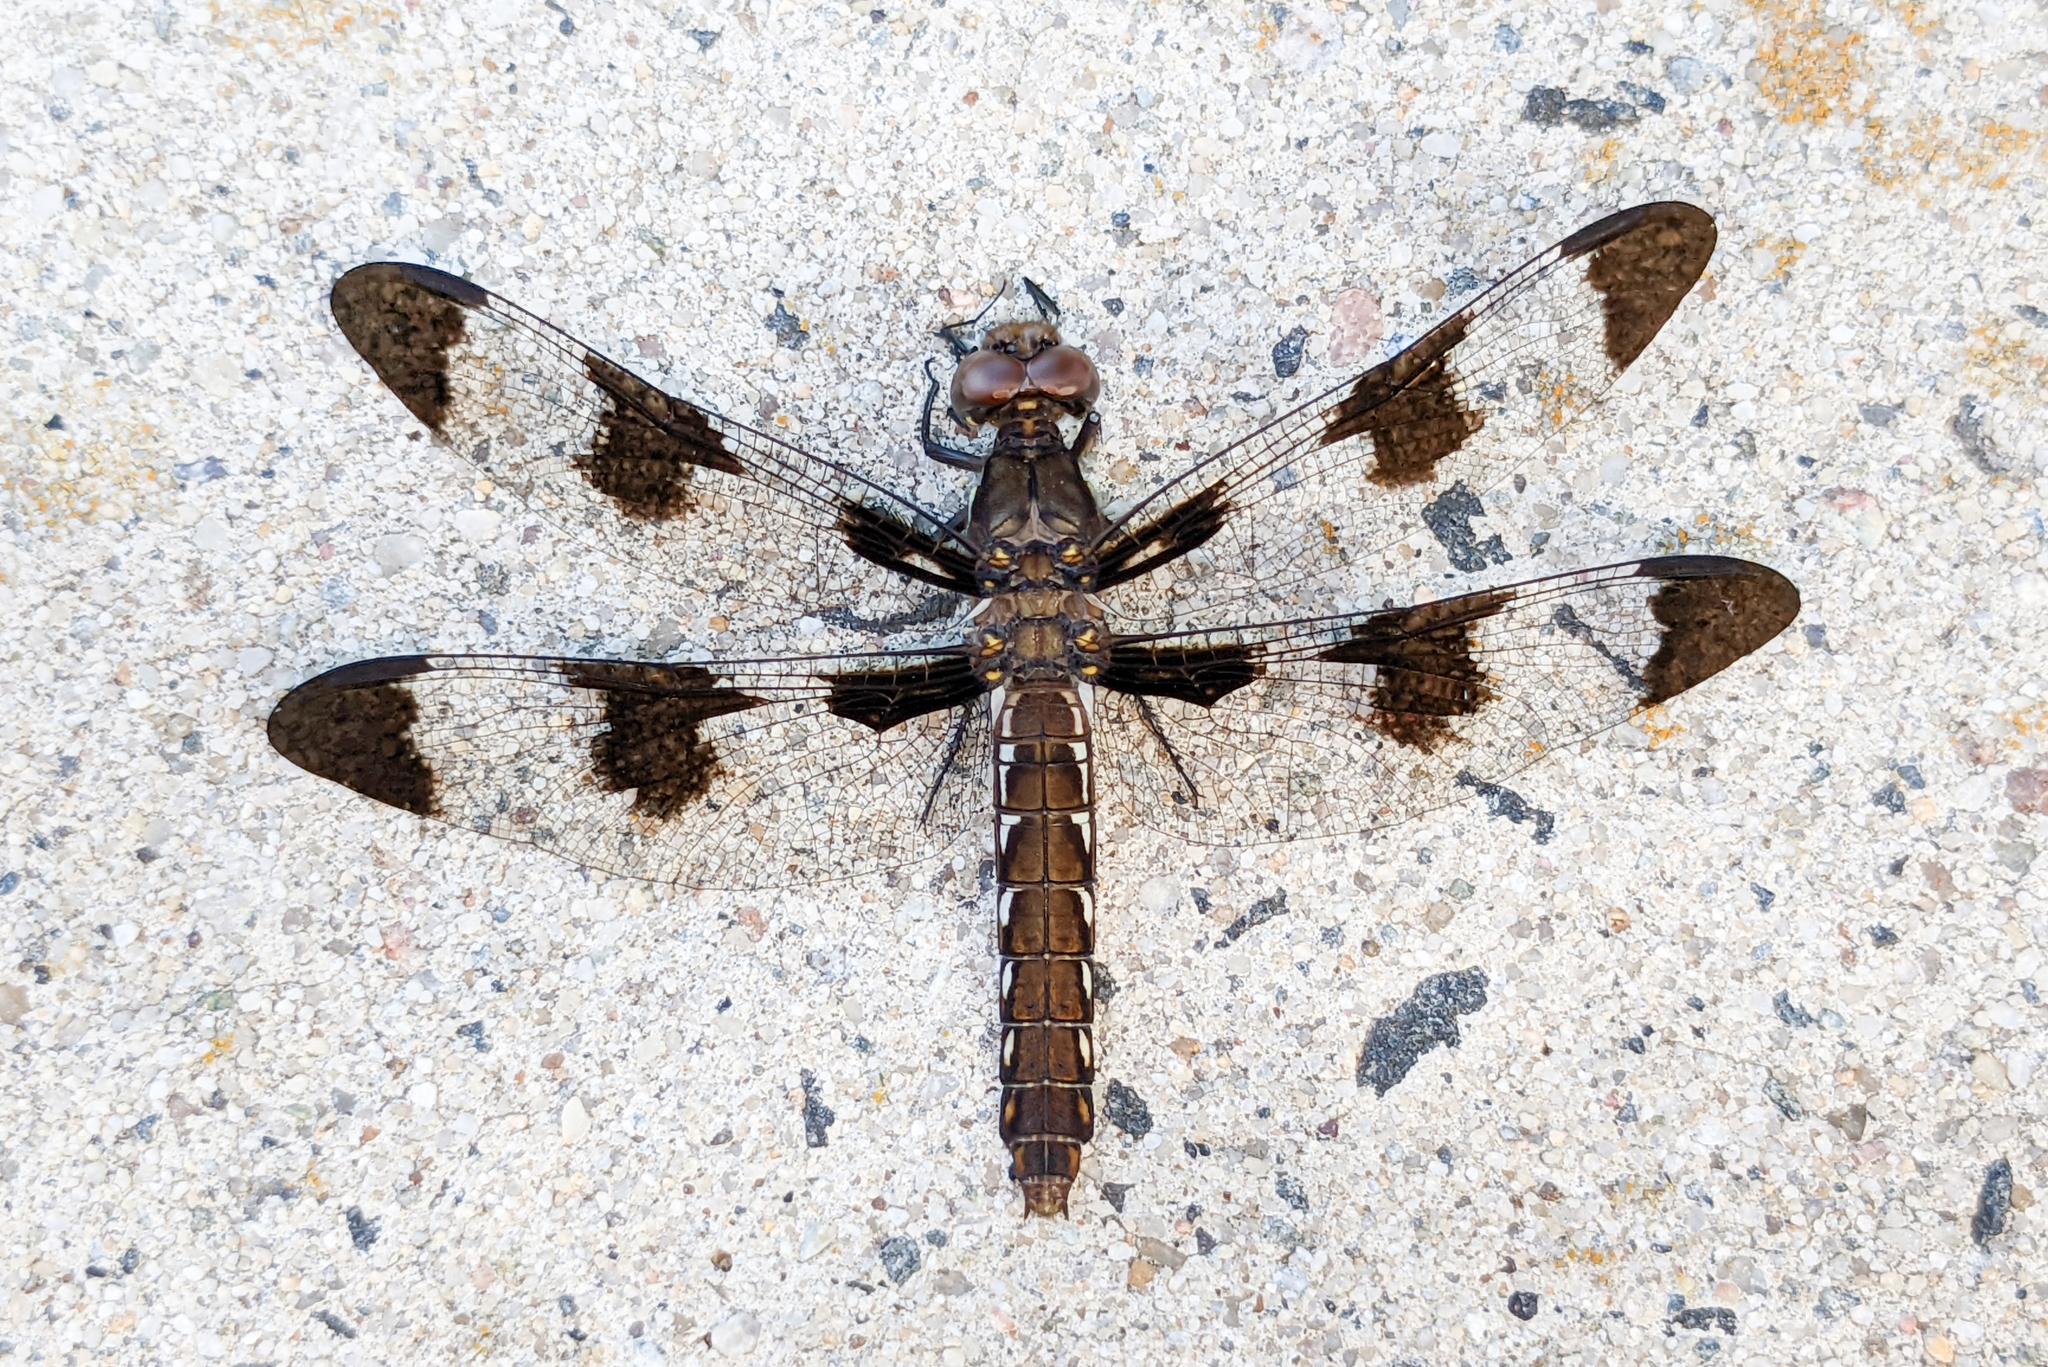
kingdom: Animalia
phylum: Arthropoda
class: Insecta
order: Odonata
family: Libellulidae
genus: Plathemis
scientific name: Plathemis lydia
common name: Common whitetail
